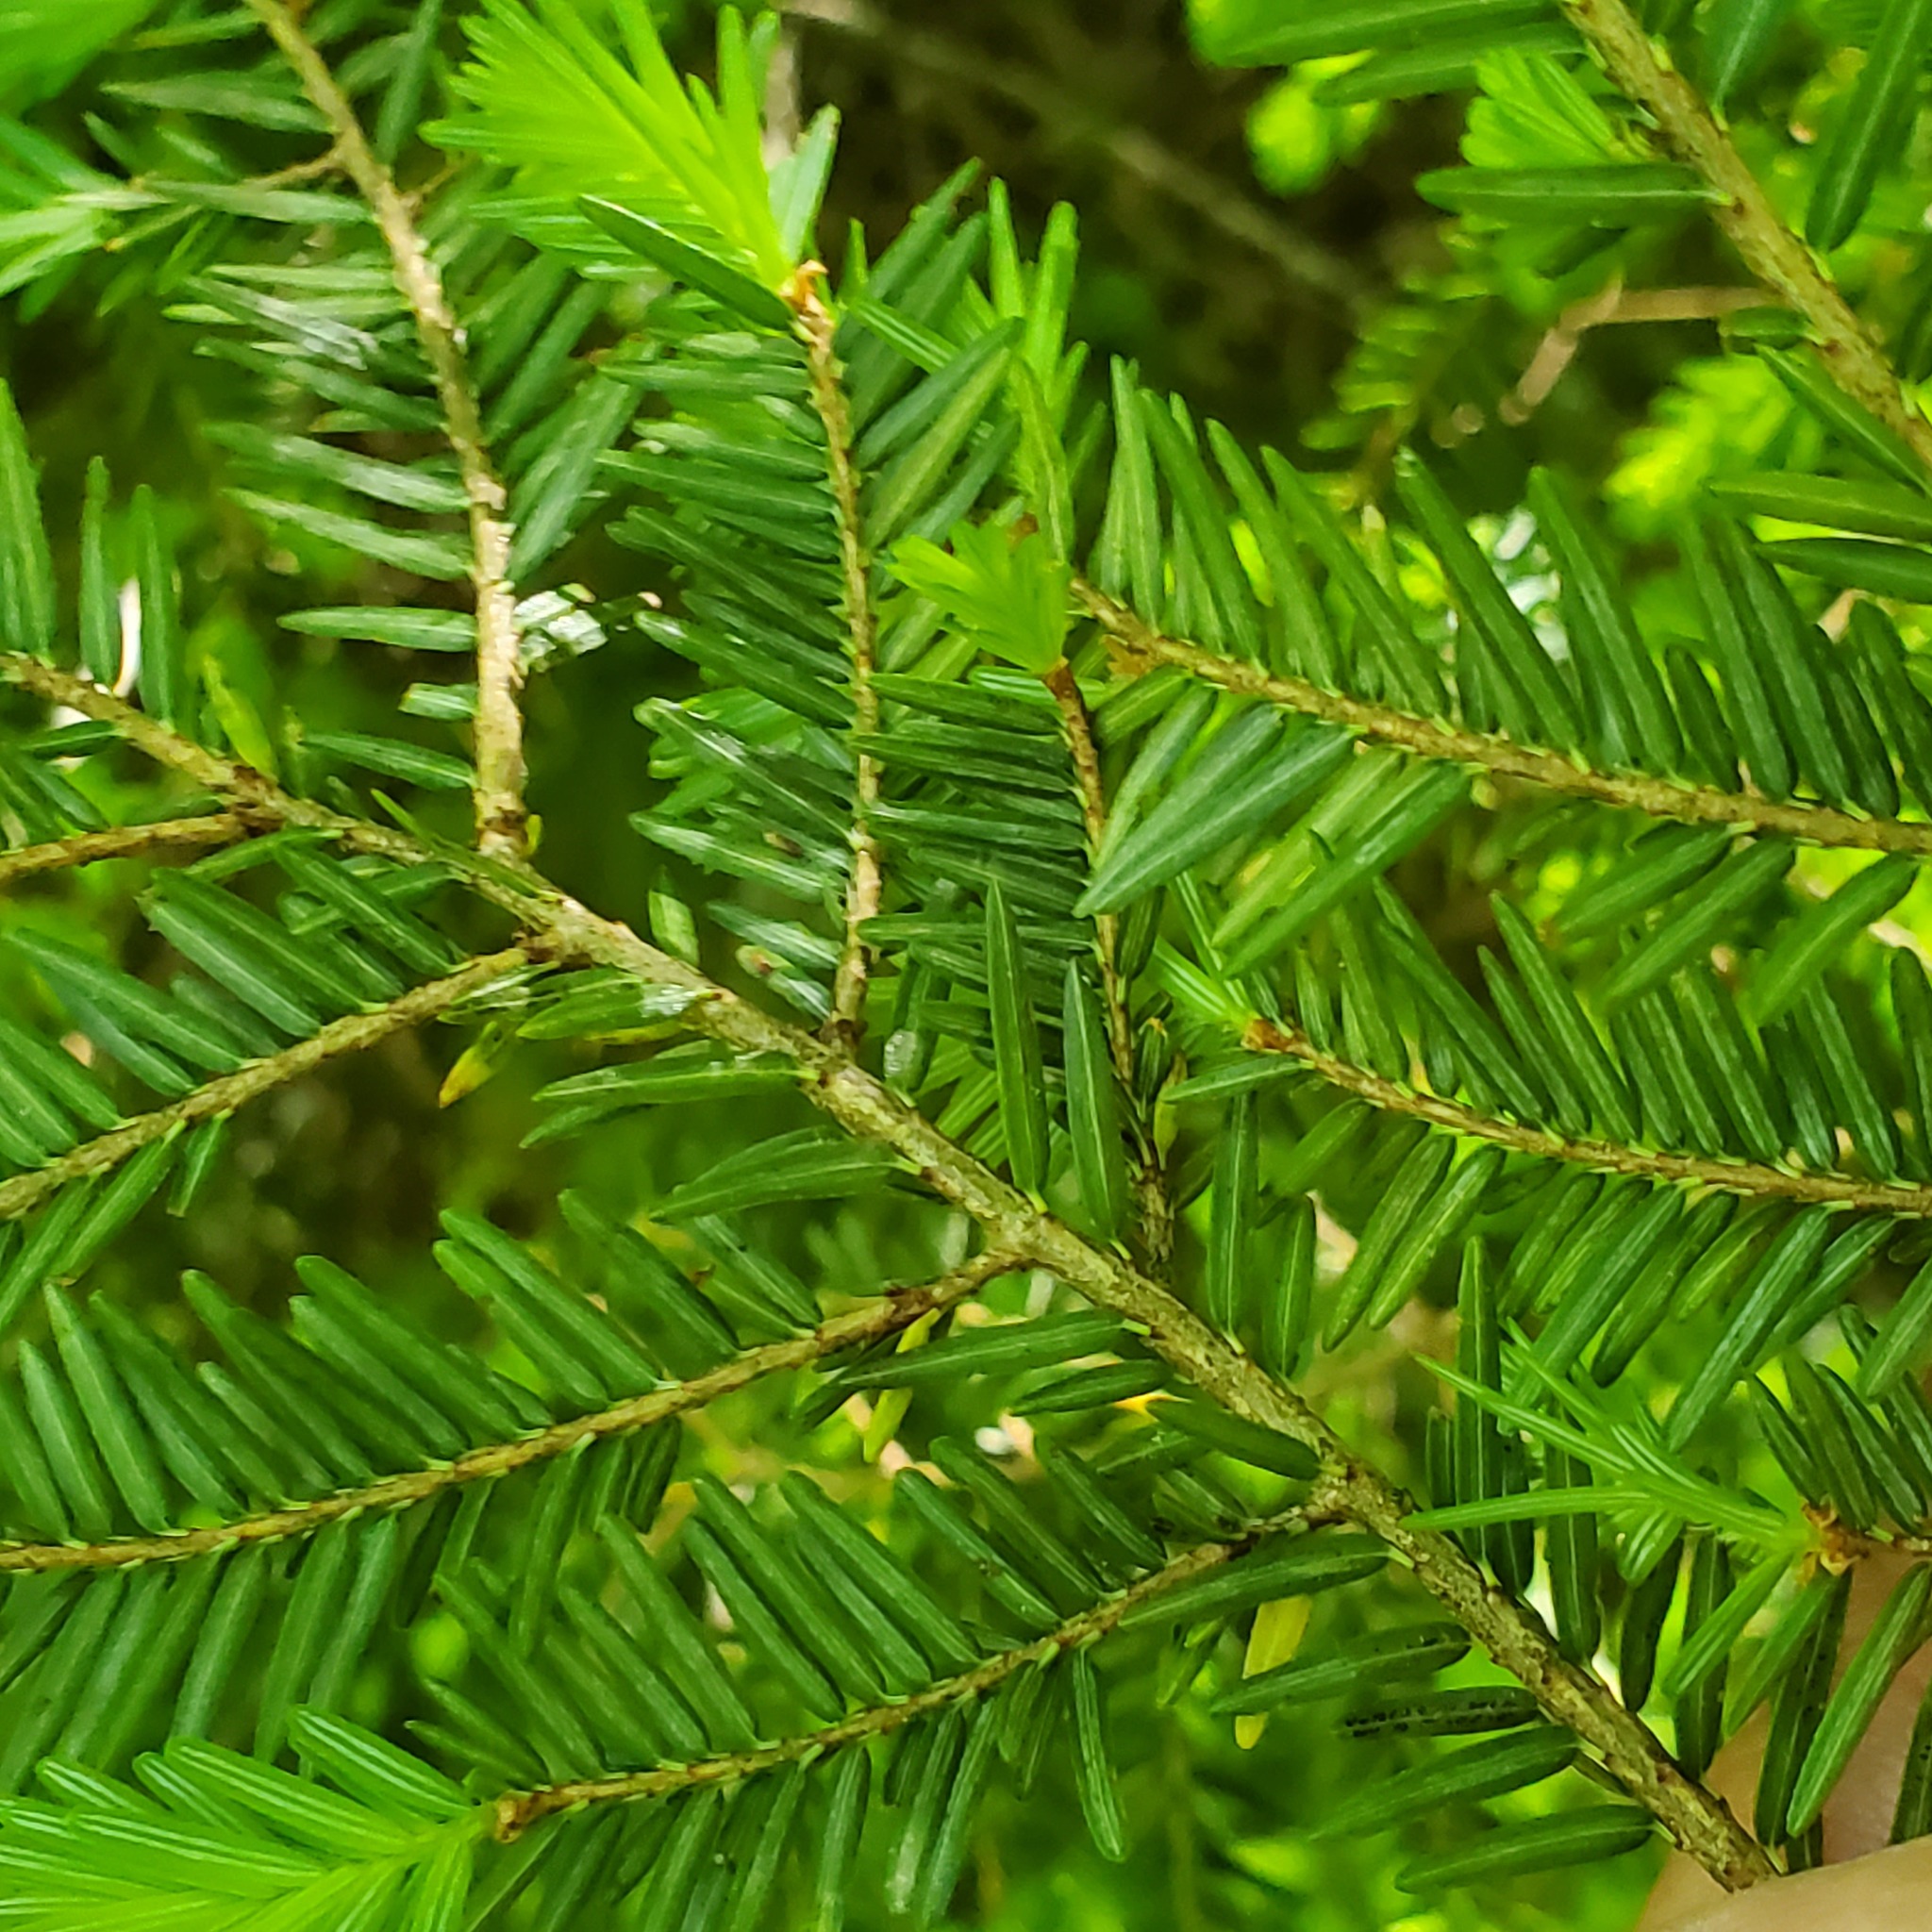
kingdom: Plantae
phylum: Tracheophyta
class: Pinopsida
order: Pinales
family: Pinaceae
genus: Tsuga
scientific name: Tsuga canadensis
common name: Eastern hemlock
